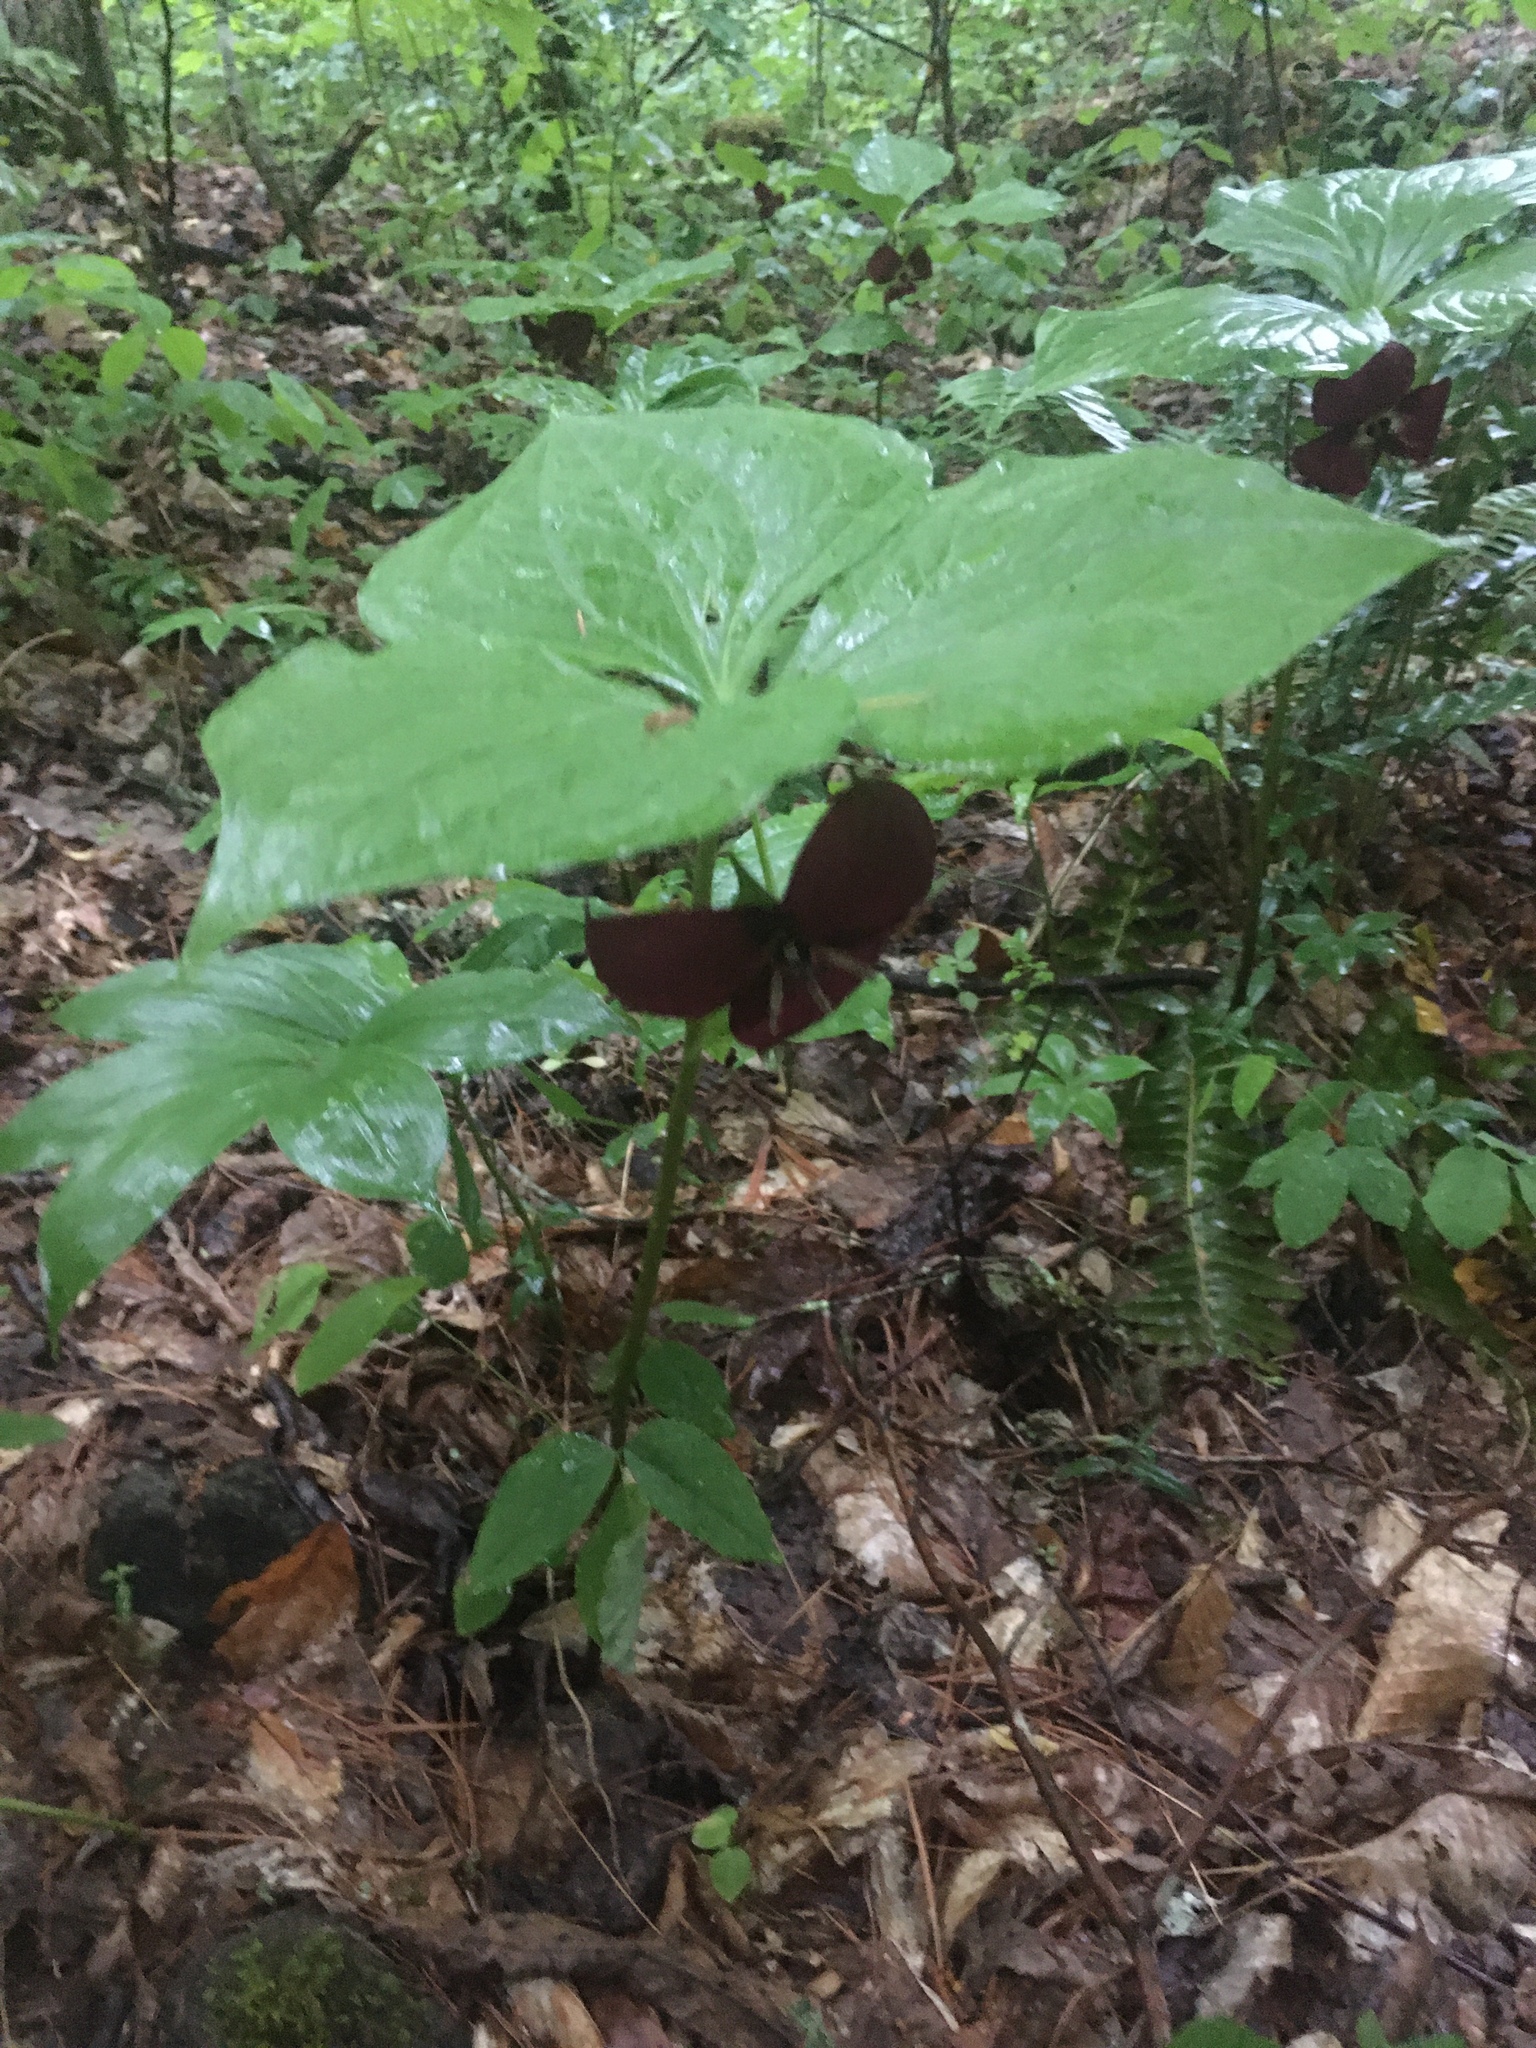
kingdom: Plantae
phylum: Tracheophyta
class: Liliopsida
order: Liliales
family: Melanthiaceae
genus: Trillium
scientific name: Trillium vaseyi
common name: Sweet trillium
